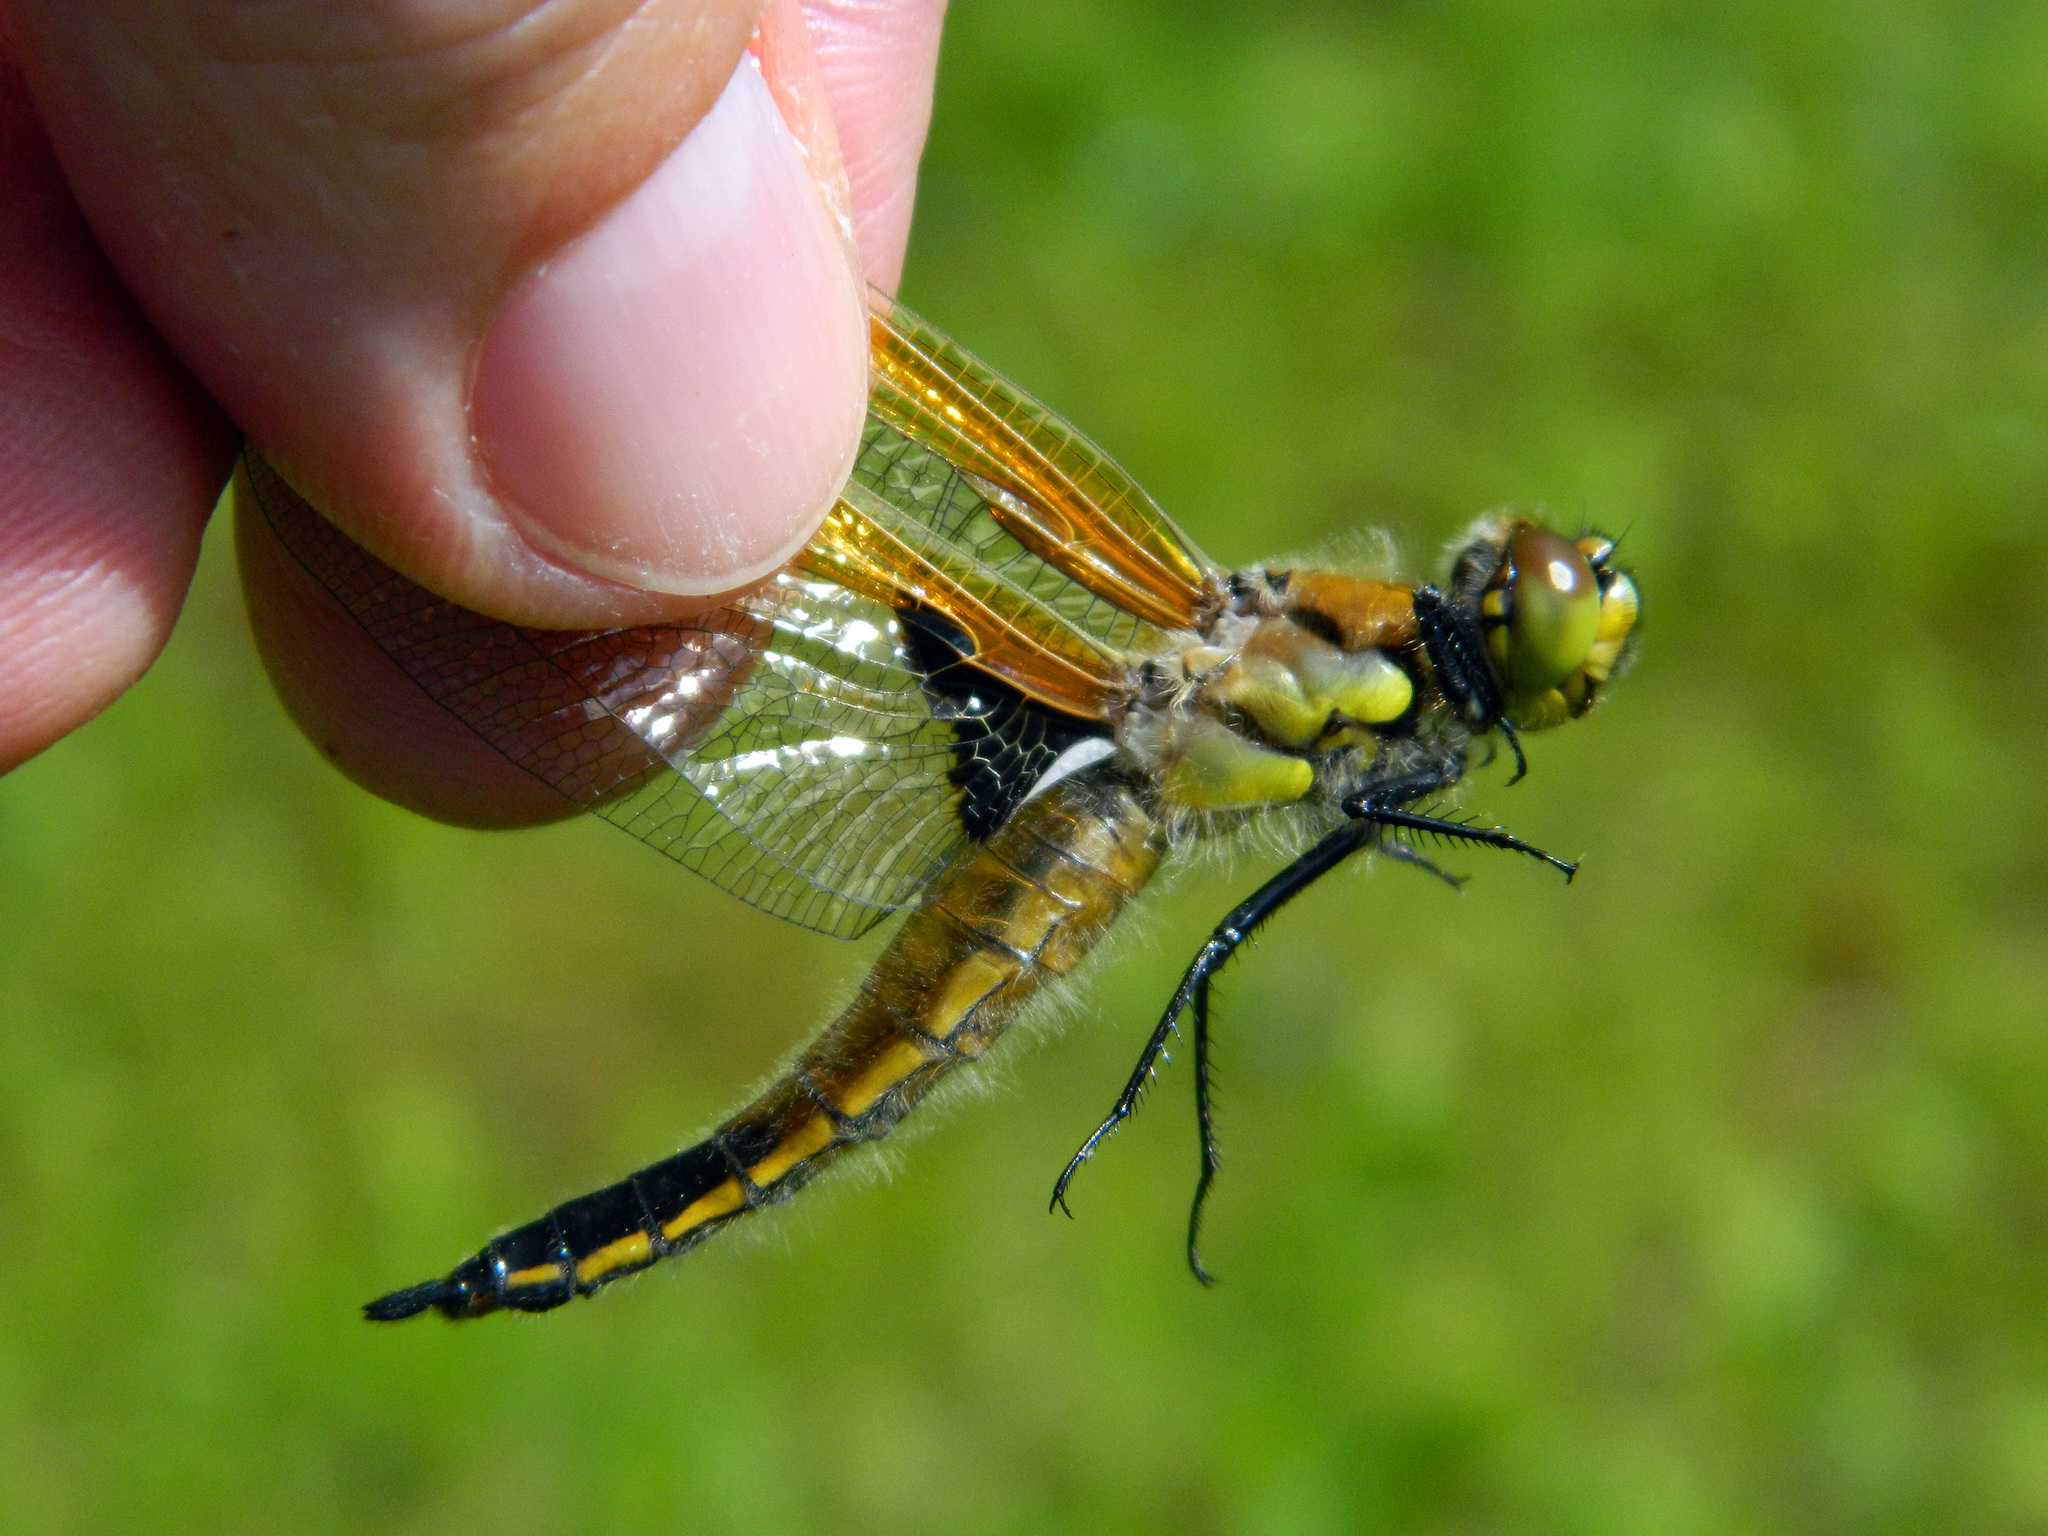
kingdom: Animalia
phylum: Arthropoda
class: Insecta
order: Odonata
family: Libellulidae
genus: Libellula
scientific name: Libellula quadrimaculata
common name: Four-spotted chaser
